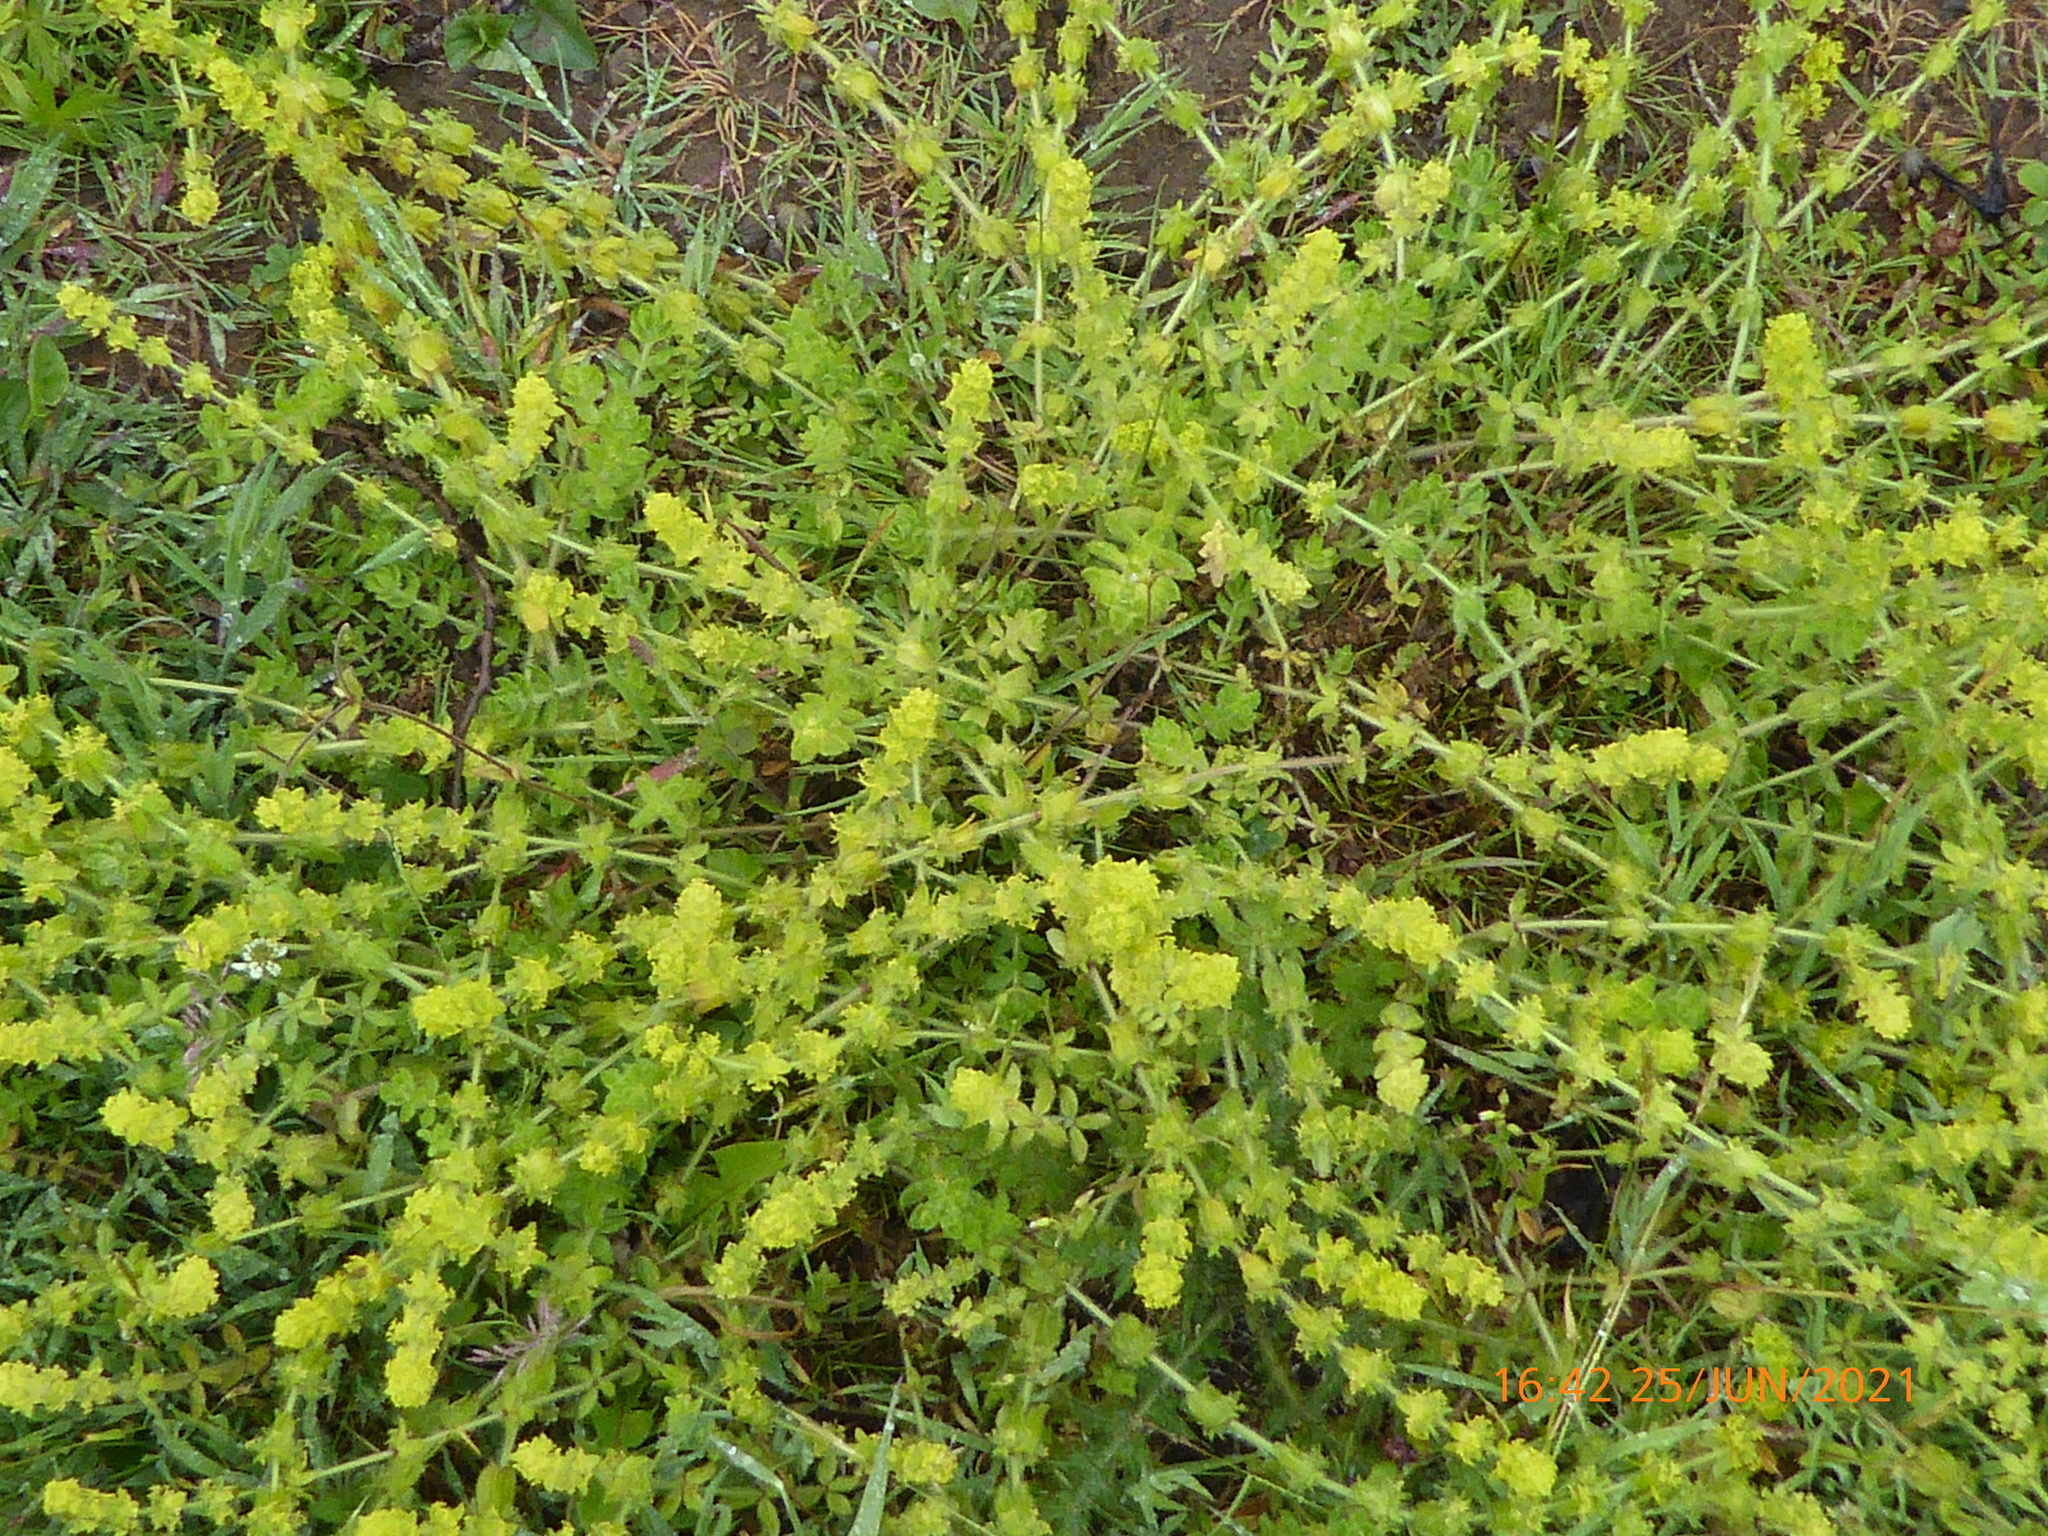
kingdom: Plantae
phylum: Tracheophyta
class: Magnoliopsida
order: Gentianales
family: Rubiaceae
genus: Cruciata
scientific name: Cruciata laevipes
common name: Crosswort
